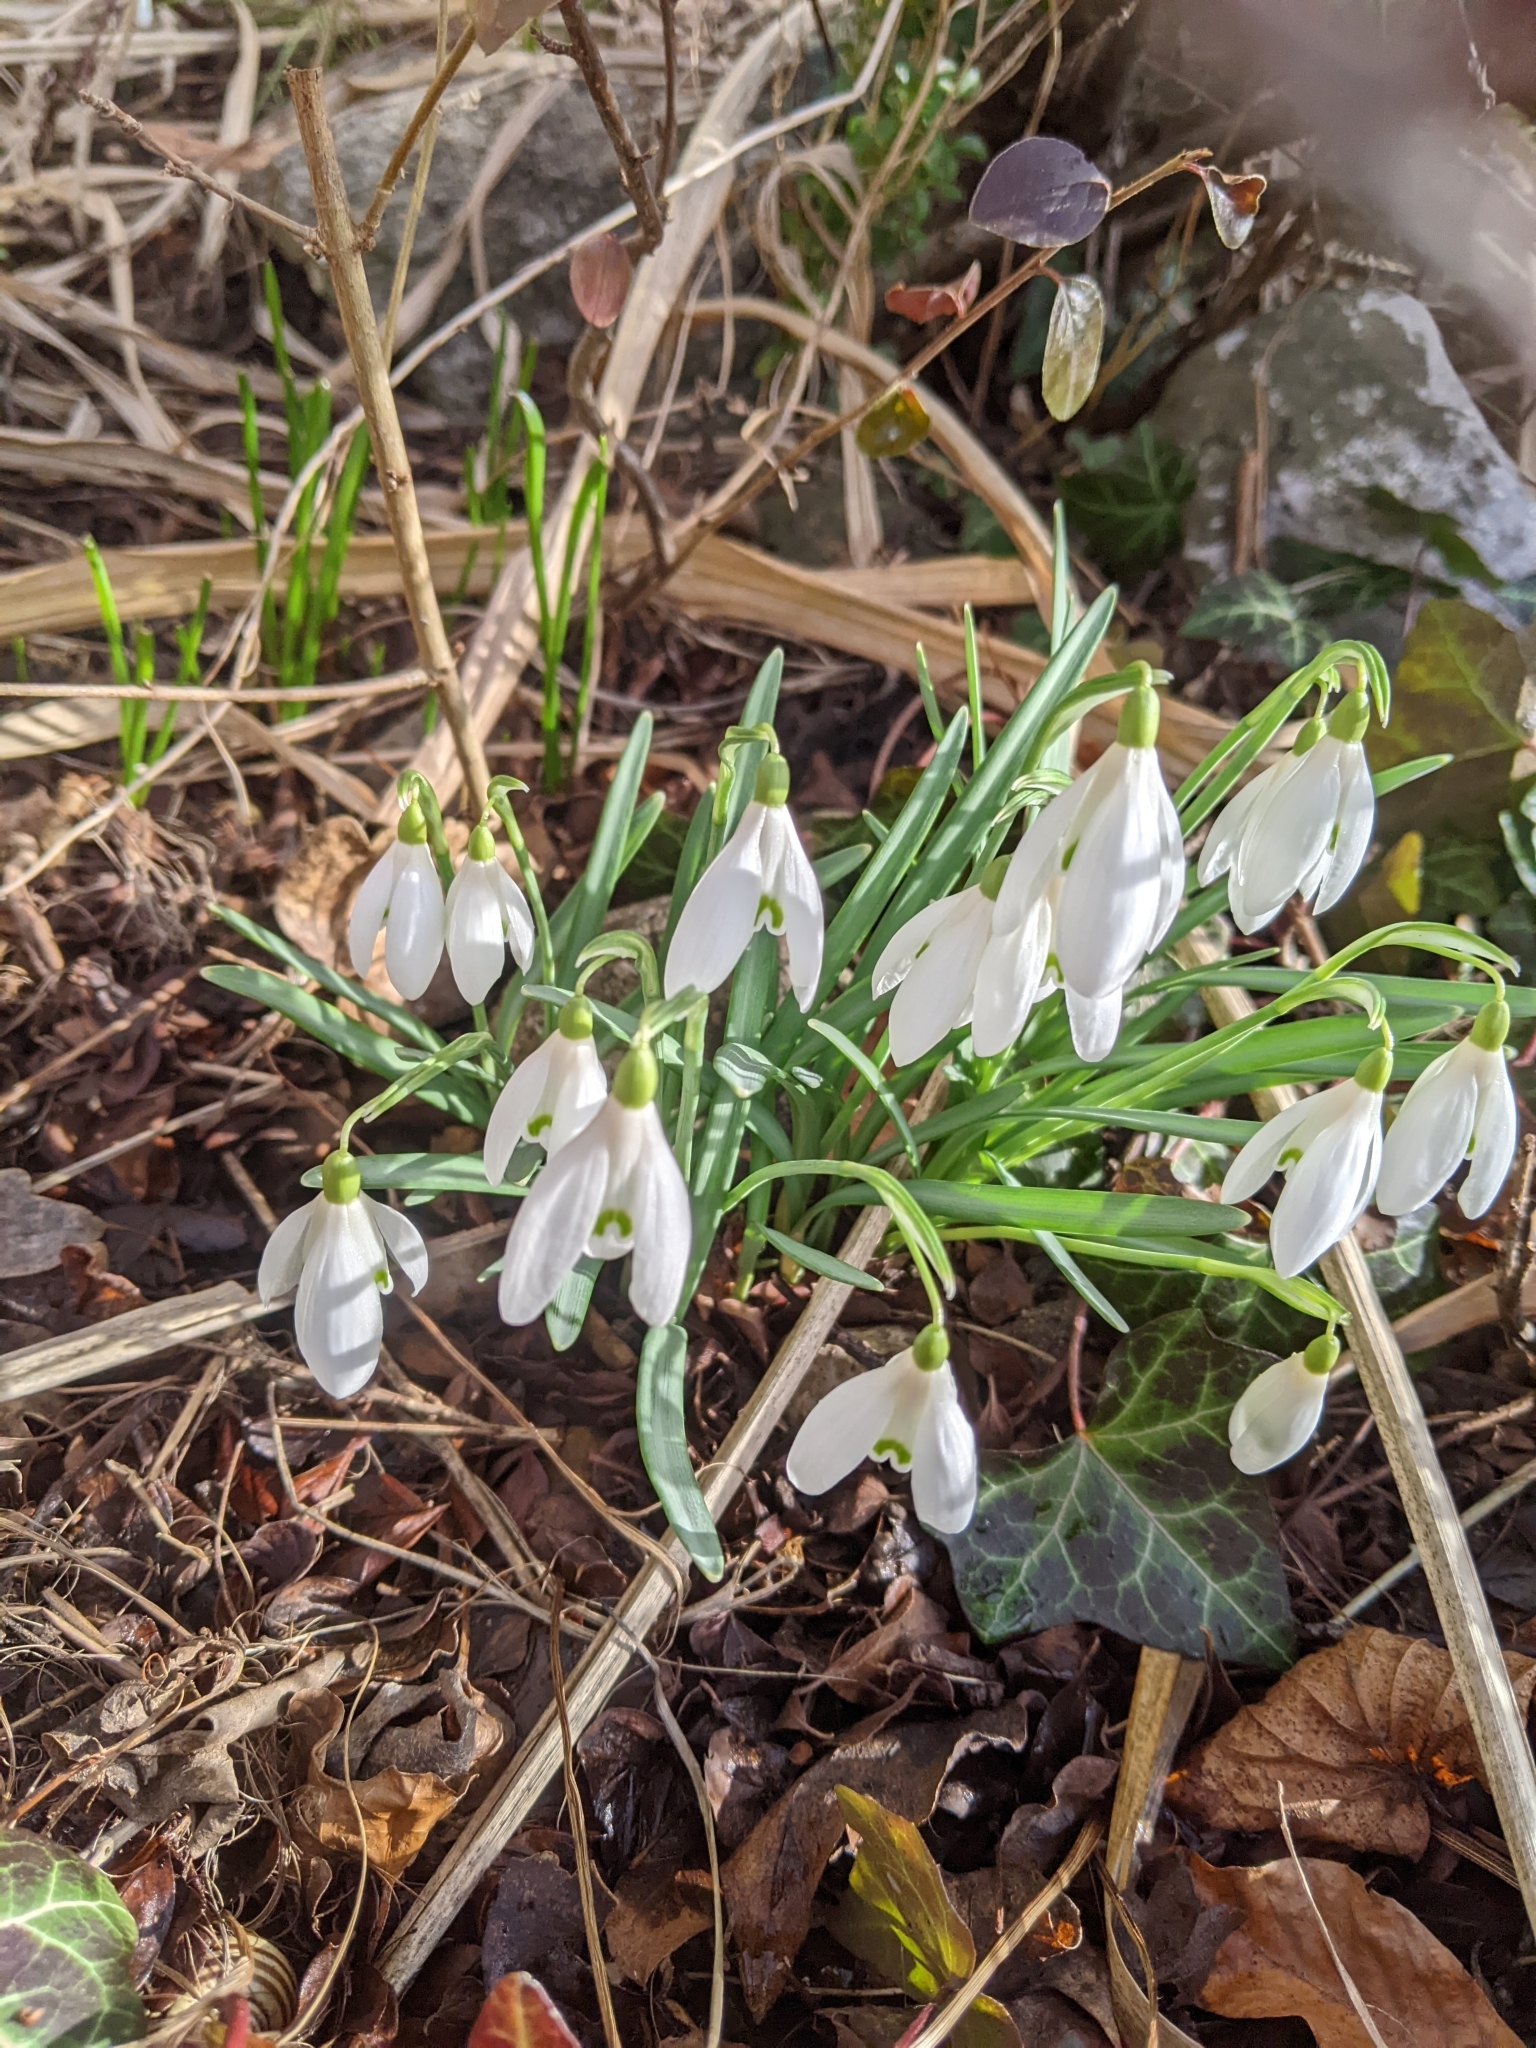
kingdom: Plantae
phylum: Tracheophyta
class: Liliopsida
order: Asparagales
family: Amaryllidaceae
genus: Galanthus
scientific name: Galanthus nivalis
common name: Snowdrop
